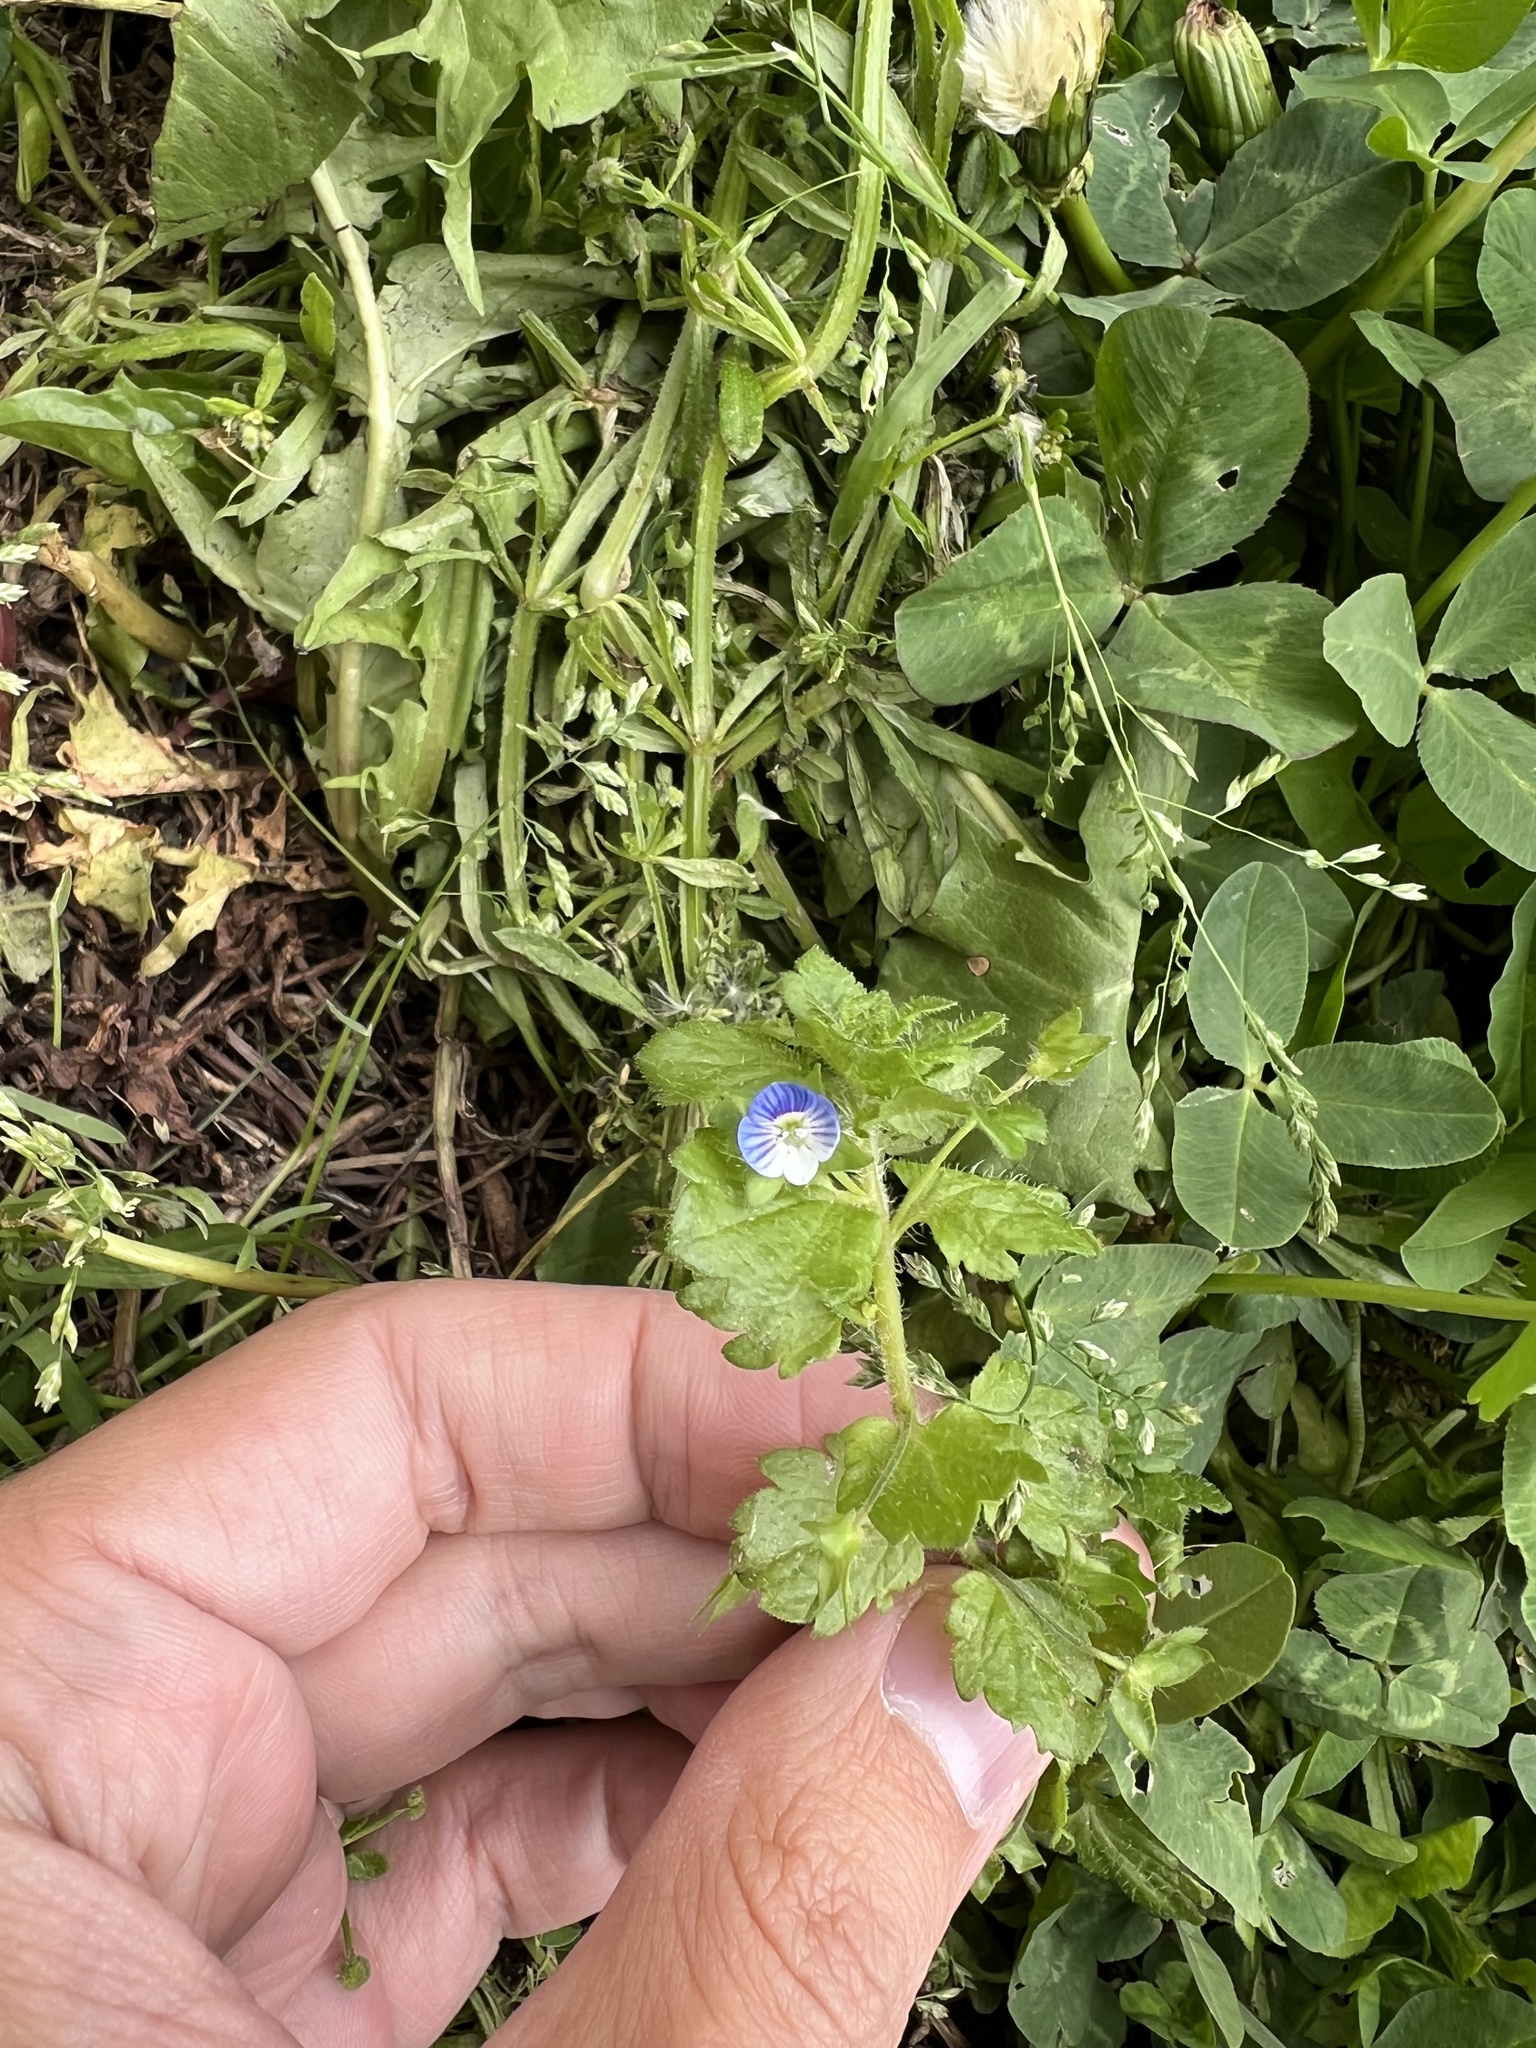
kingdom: Plantae
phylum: Tracheophyta
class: Magnoliopsida
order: Lamiales
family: Plantaginaceae
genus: Veronica
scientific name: Veronica persica
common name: Common field-speedwell
